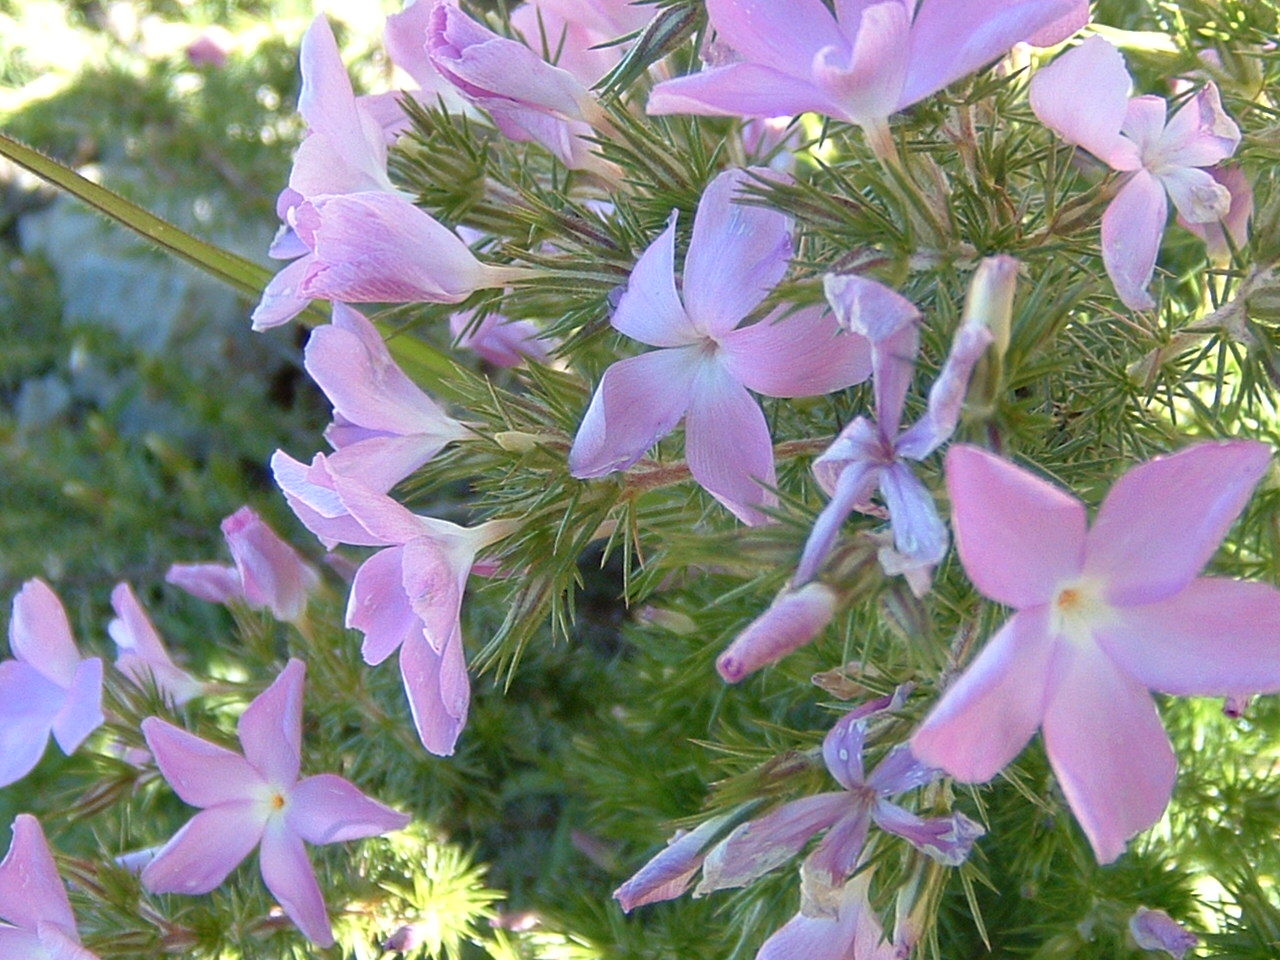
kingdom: Plantae
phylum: Tracheophyta
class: Magnoliopsida
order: Ericales
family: Polemoniaceae
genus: Linanthus
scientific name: Linanthus californicus
